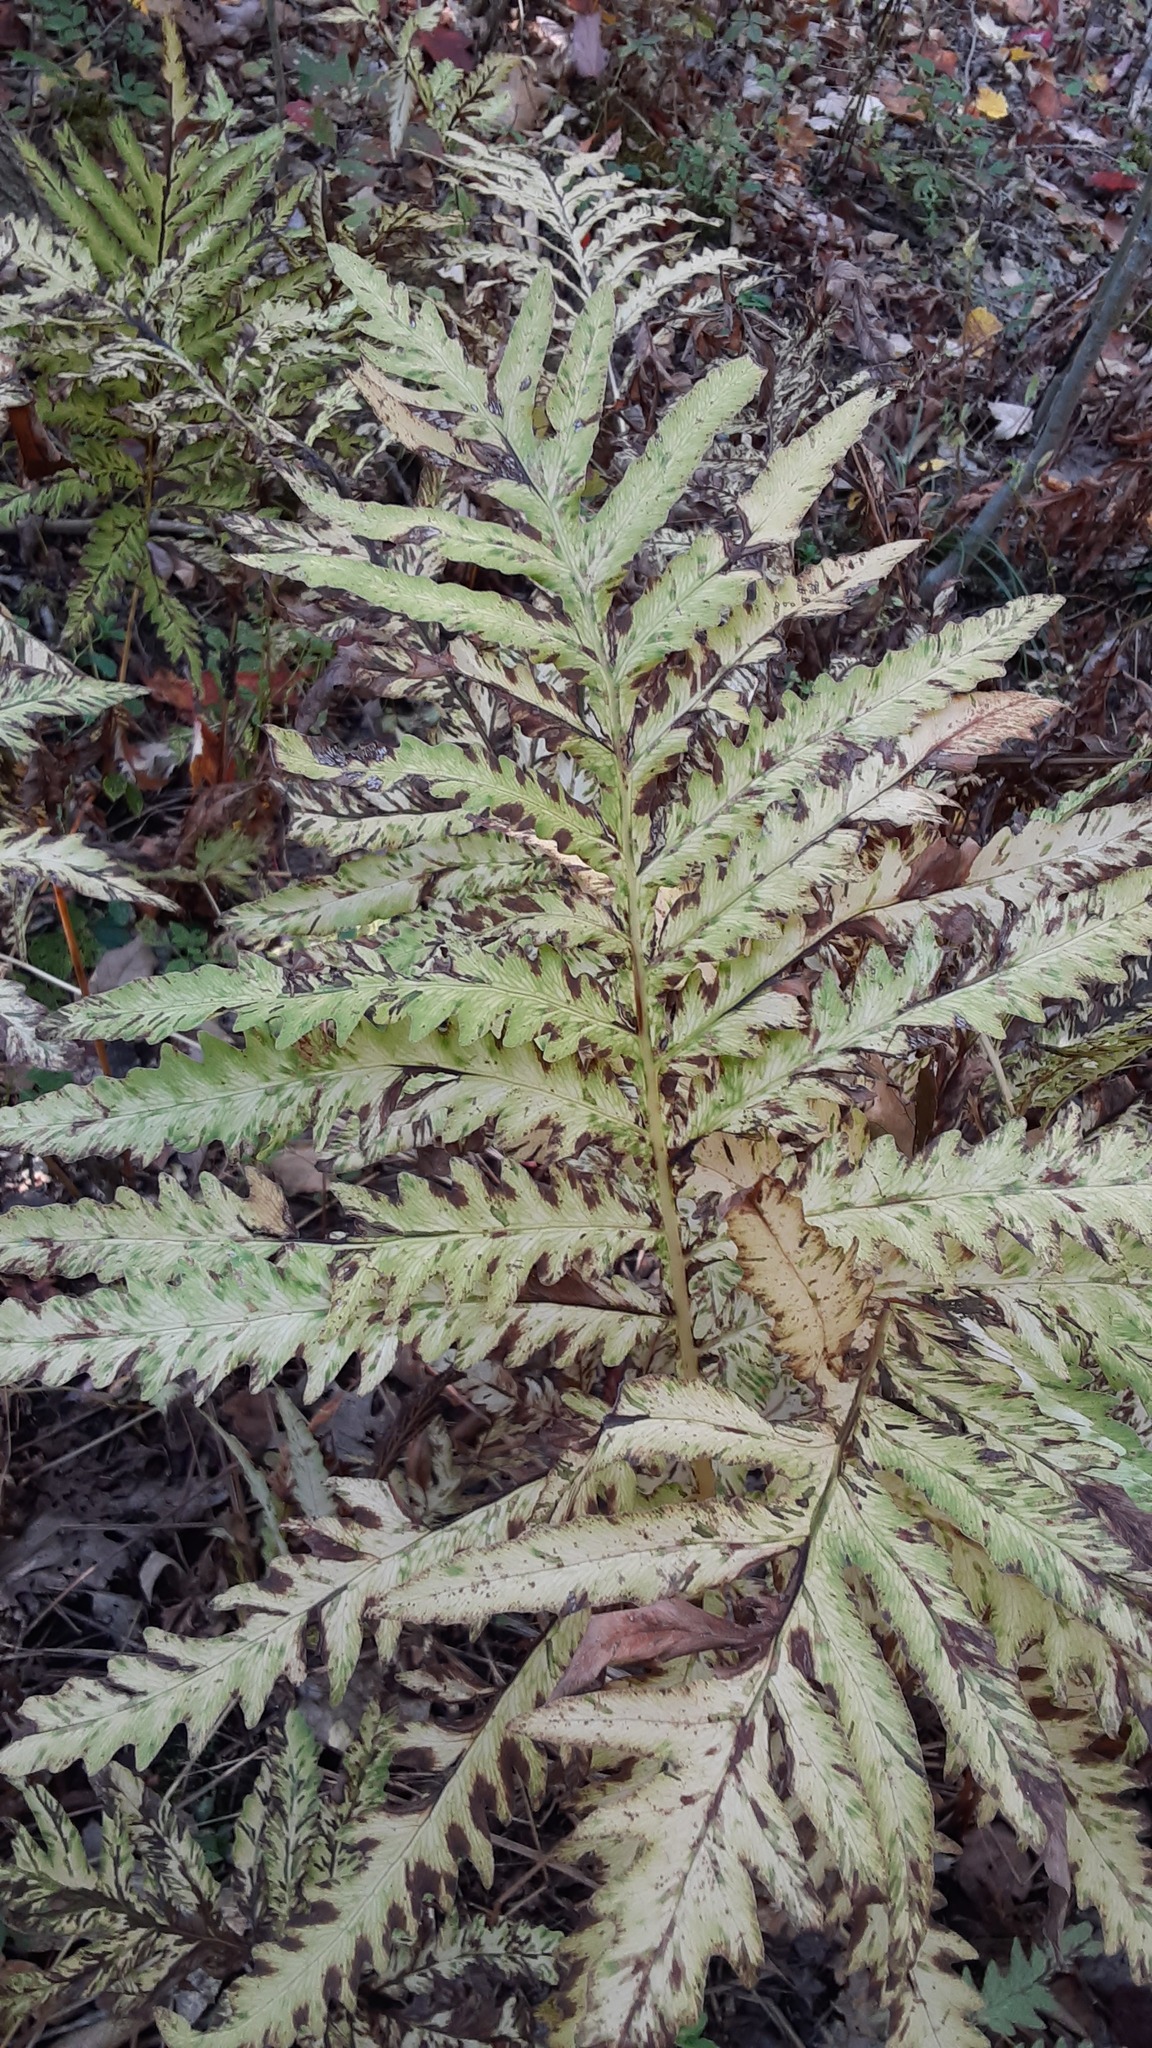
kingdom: Plantae
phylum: Tracheophyta
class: Polypodiopsida
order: Polypodiales
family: Onocleaceae
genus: Onoclea
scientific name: Onoclea sensibilis
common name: Sensitive fern
